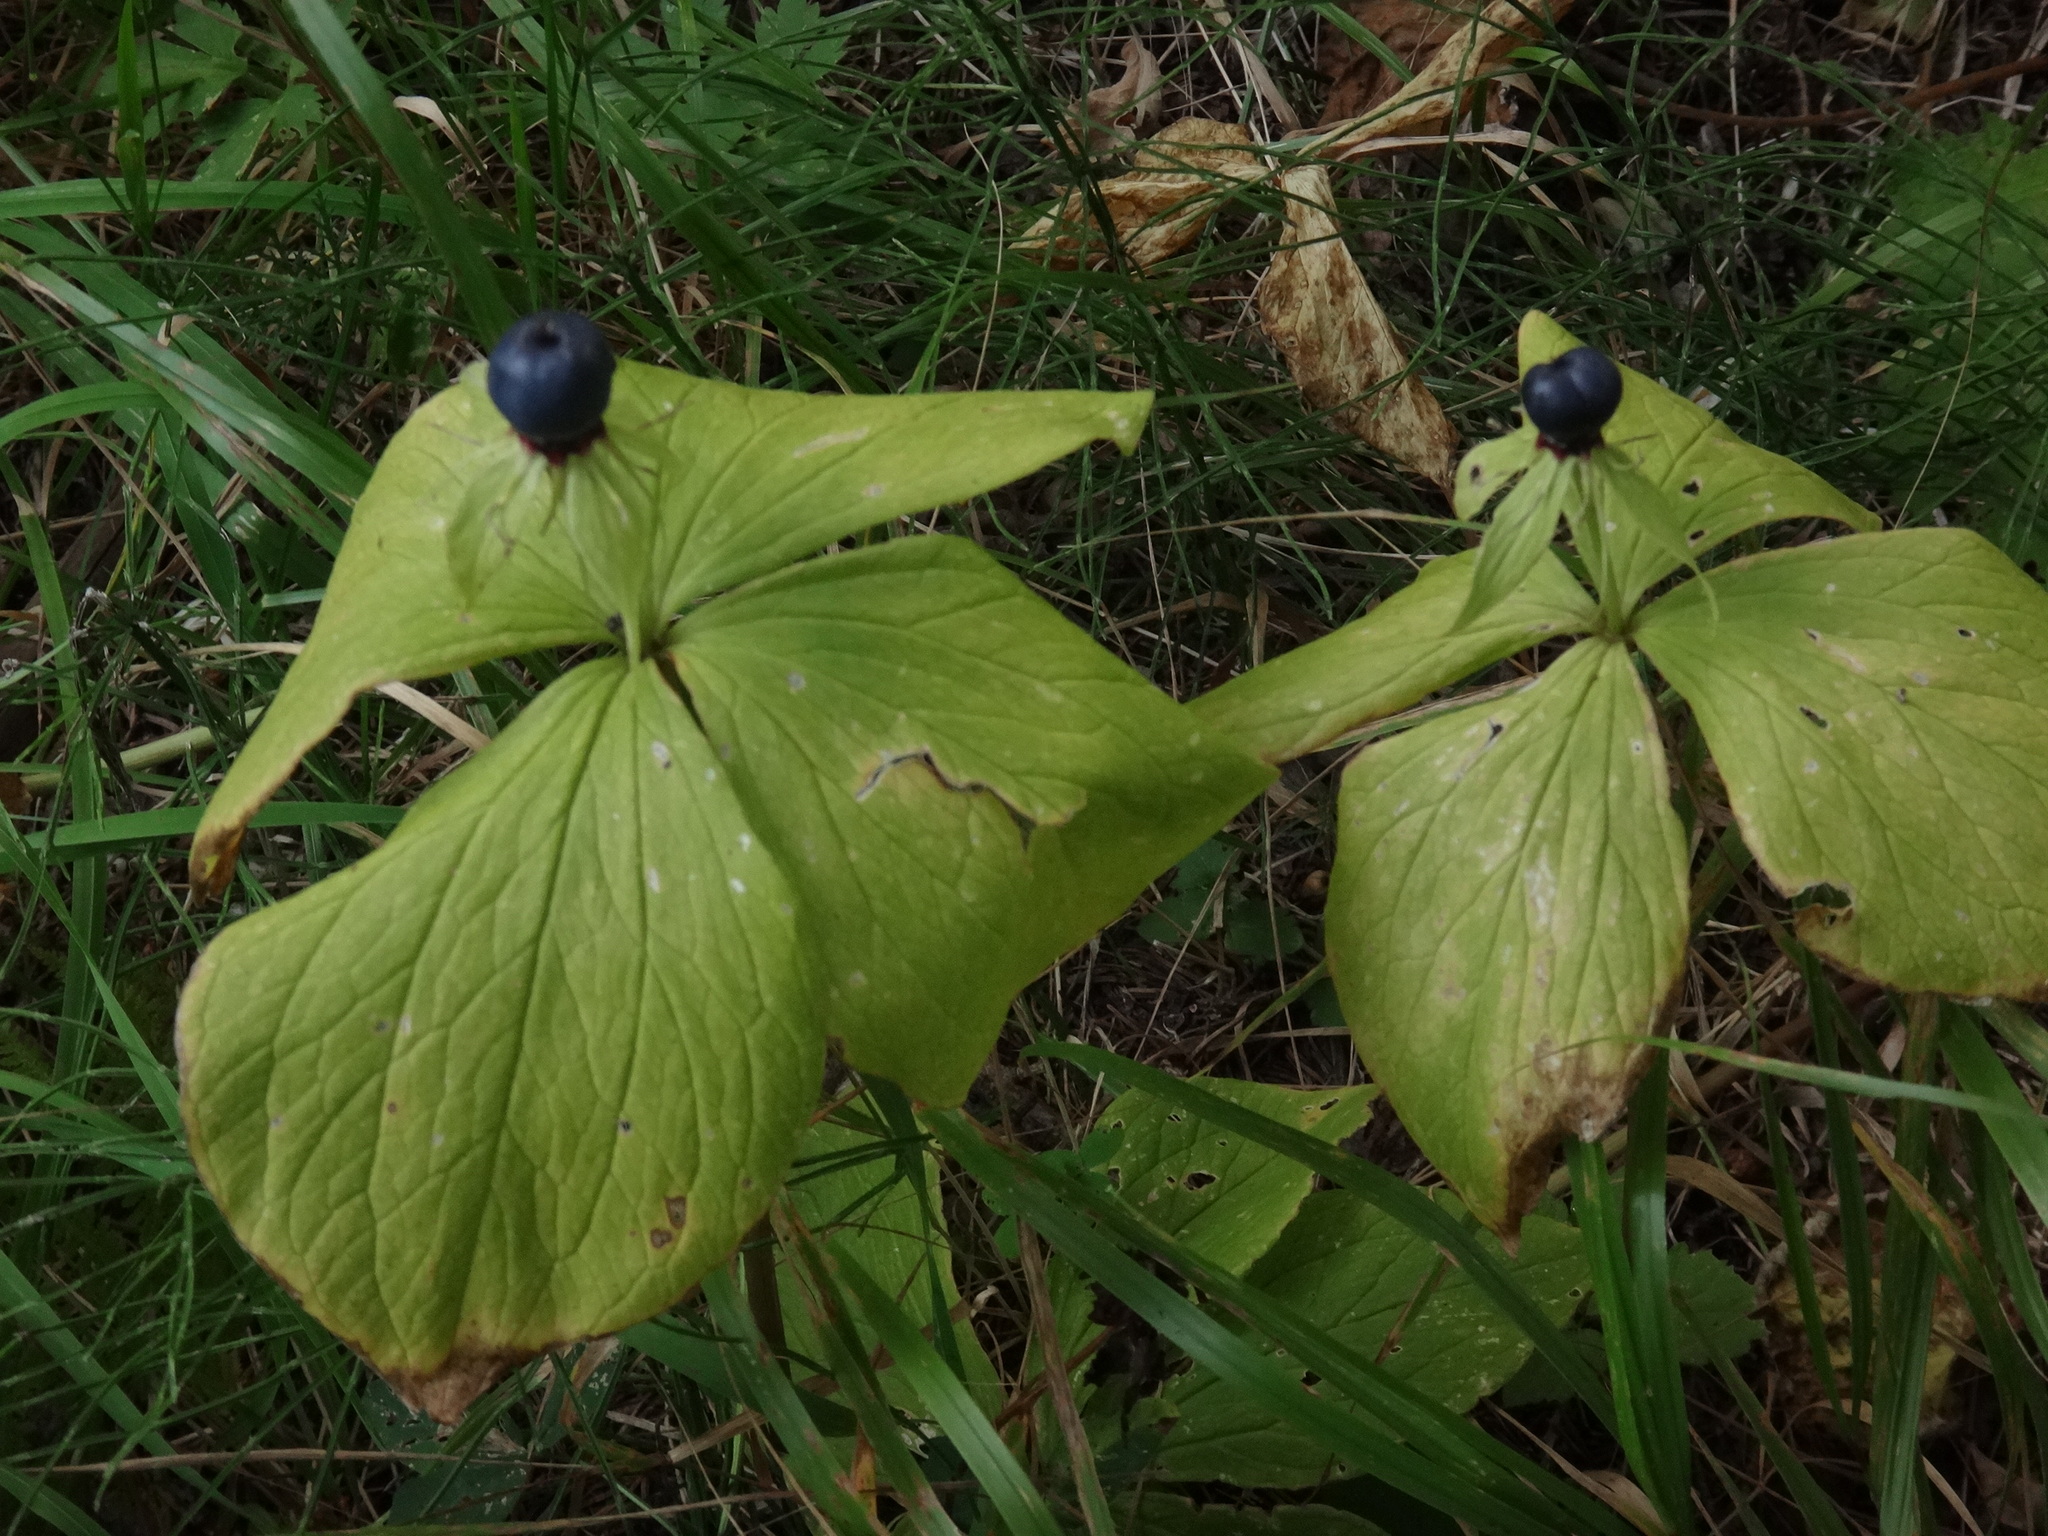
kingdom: Plantae
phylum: Tracheophyta
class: Liliopsida
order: Liliales
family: Melanthiaceae
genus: Paris
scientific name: Paris quadrifolia
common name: Herb-paris
